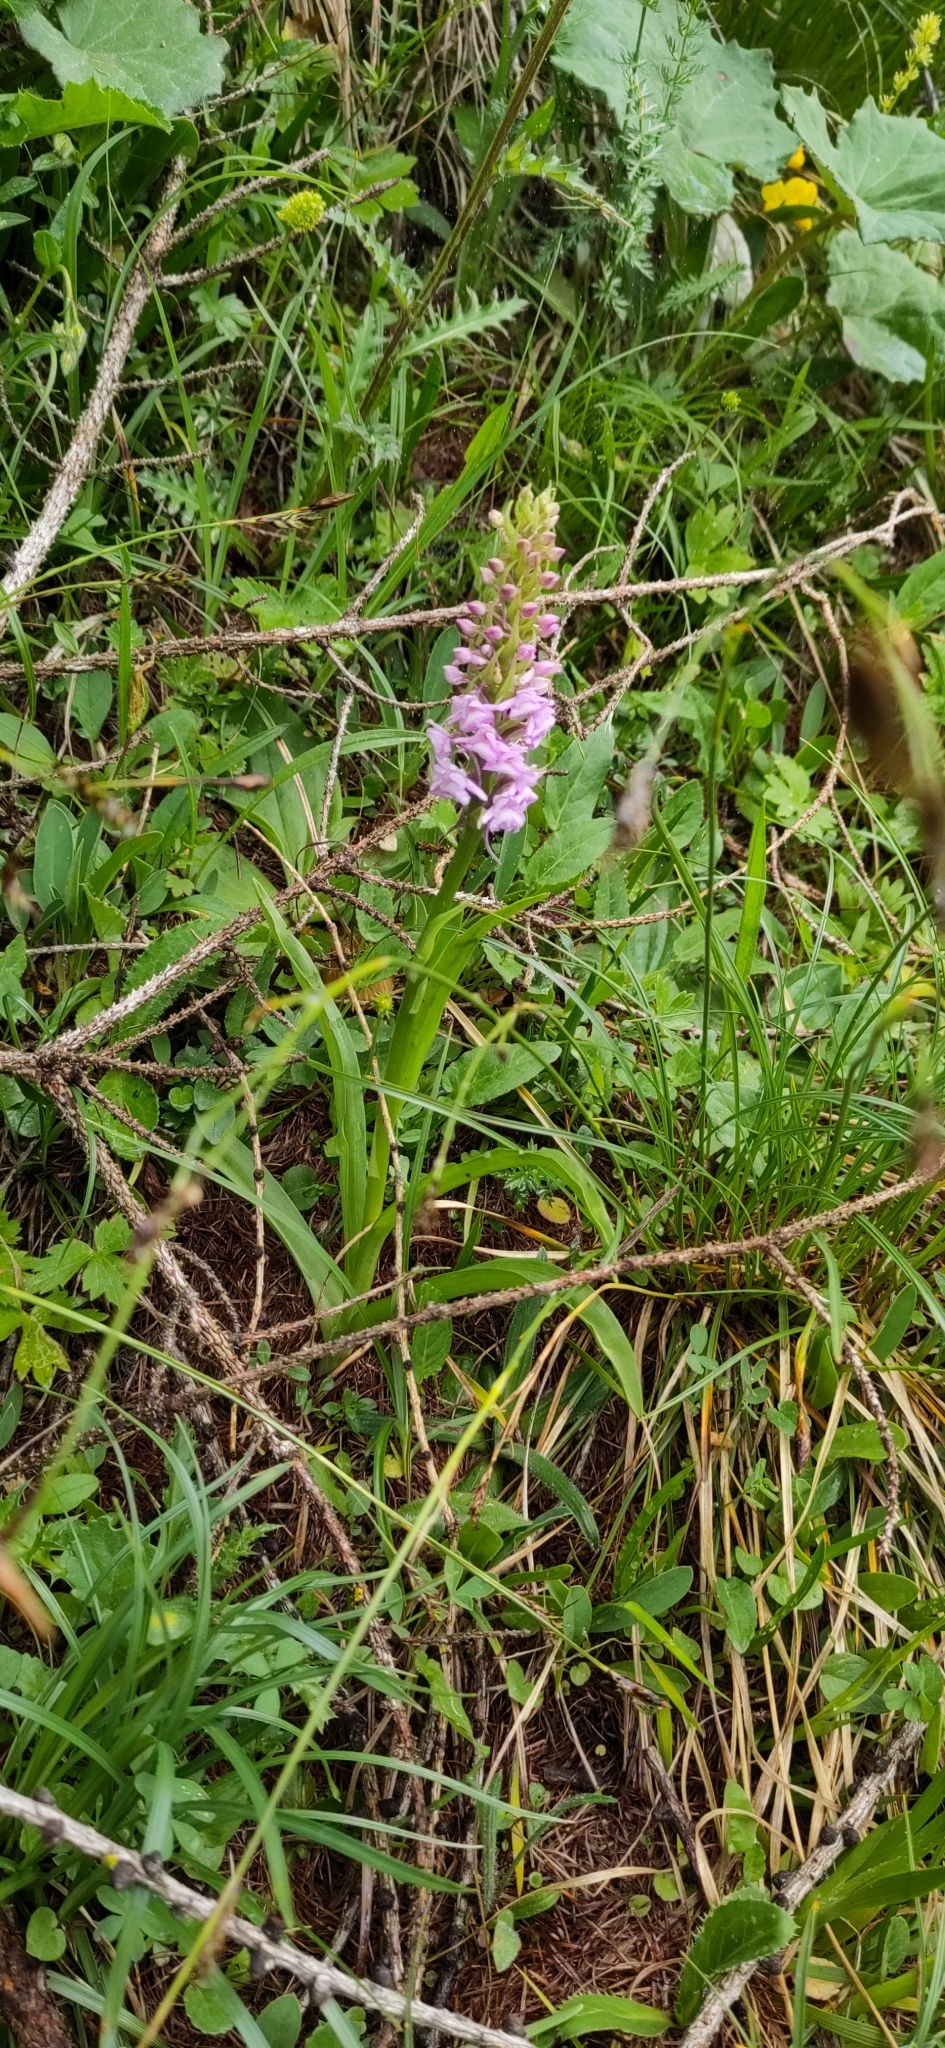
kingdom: Plantae
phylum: Tracheophyta
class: Liliopsida
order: Asparagales
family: Orchidaceae
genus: Gymnadenia
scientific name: Gymnadenia conopsea
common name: Fragrant orchid
